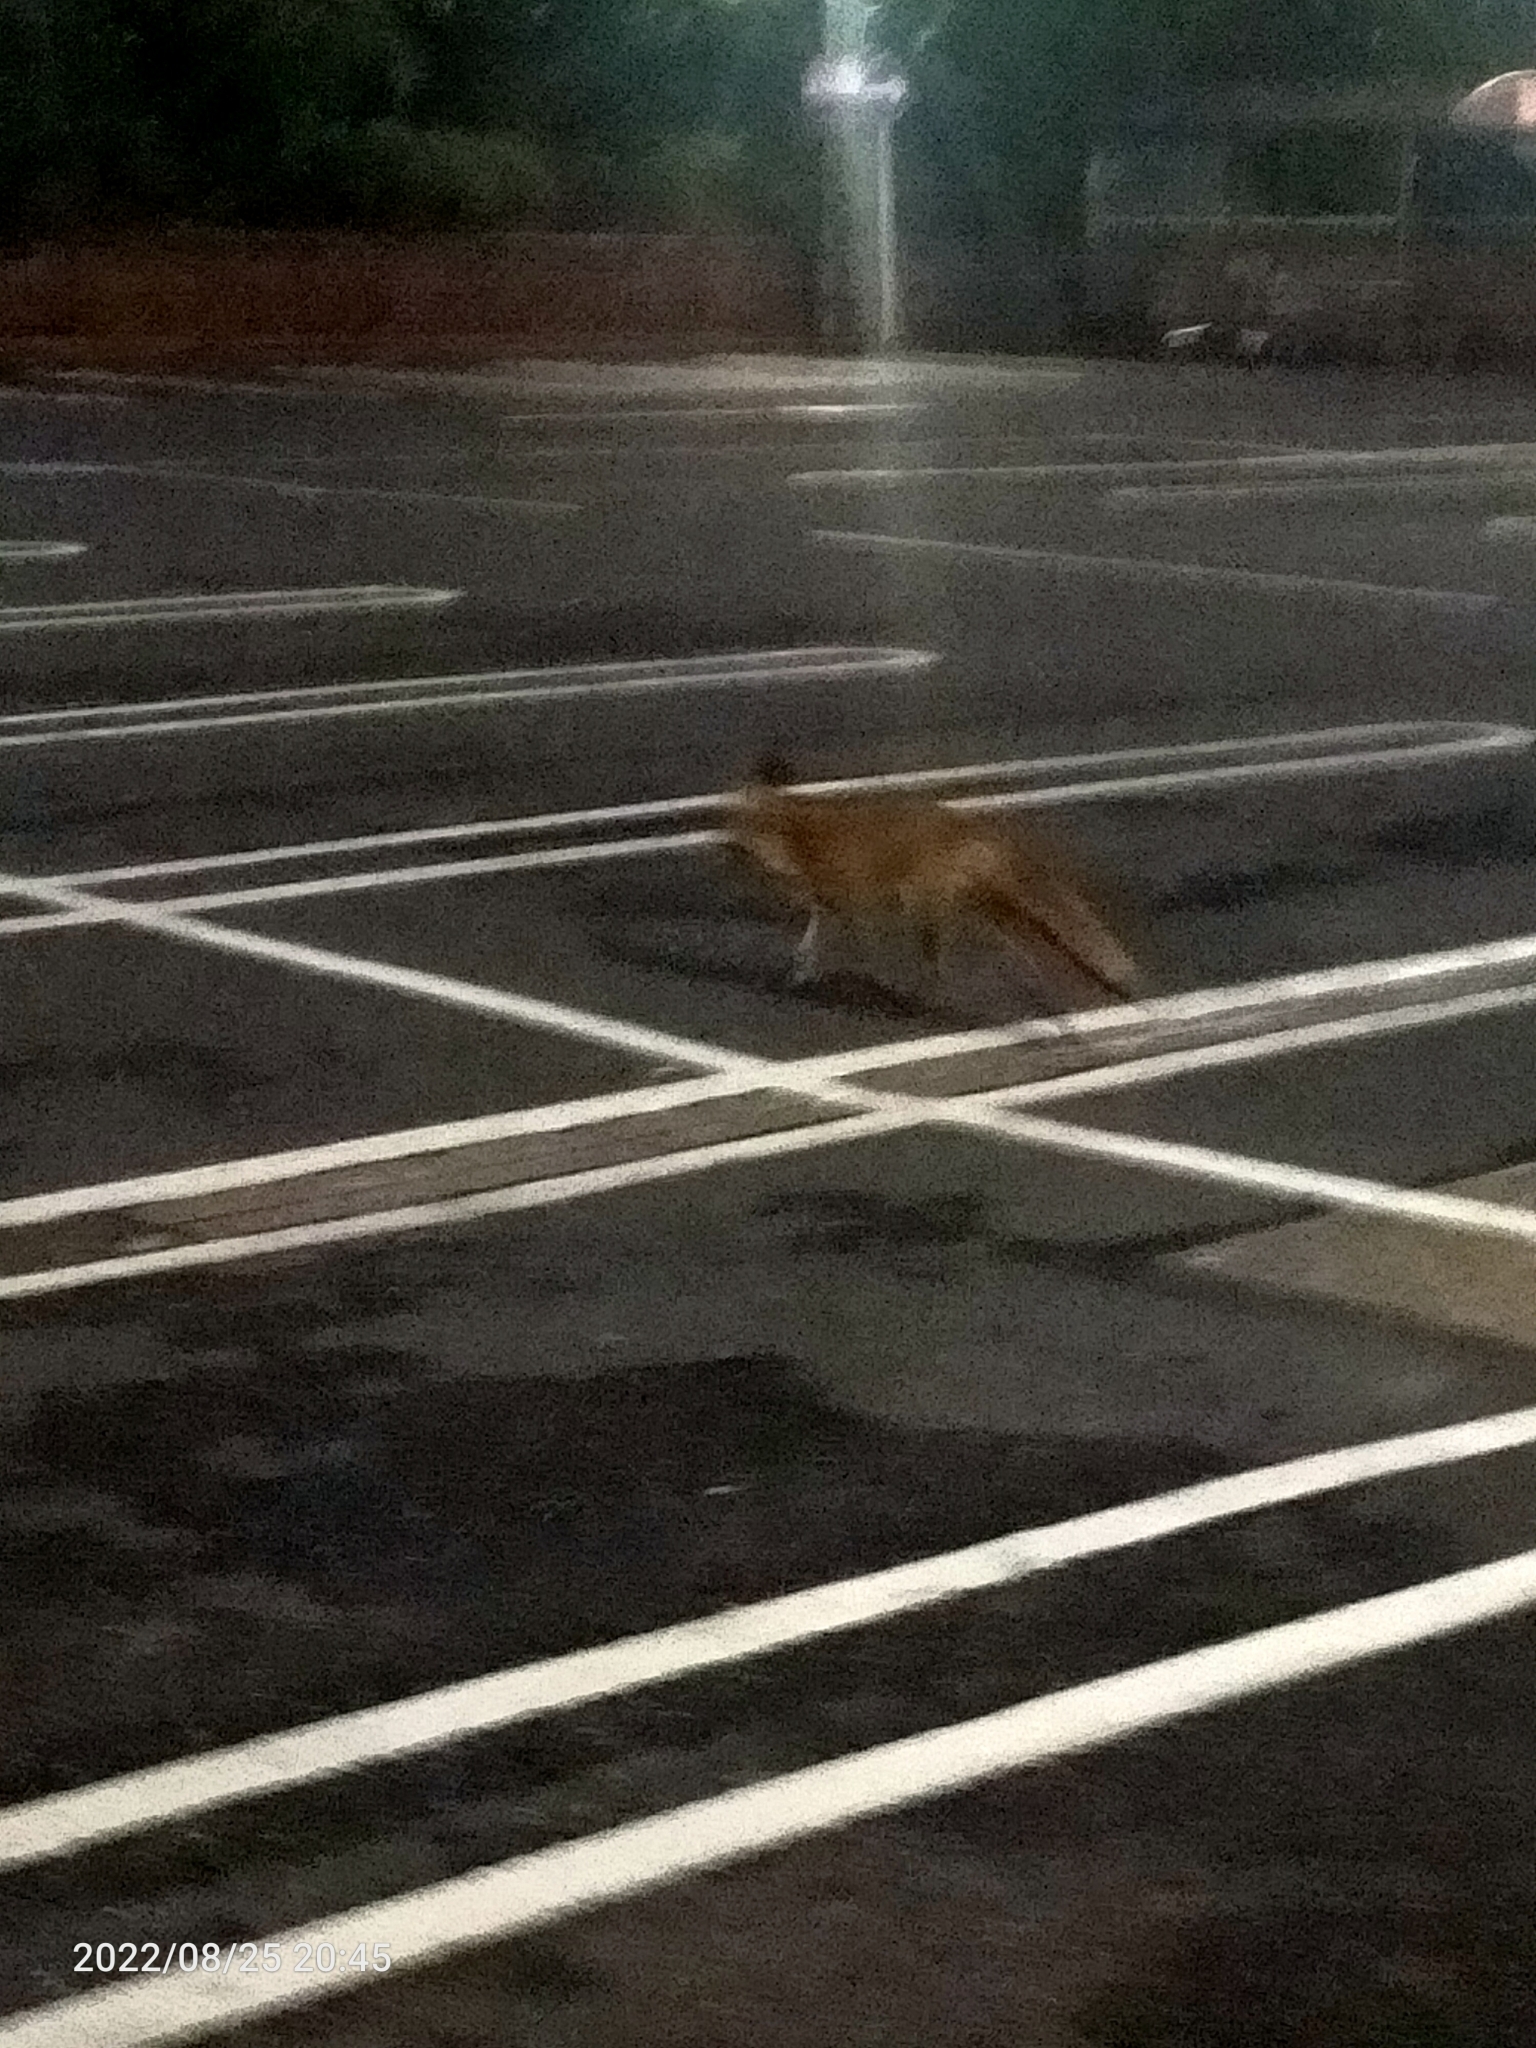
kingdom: Animalia
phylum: Chordata
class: Mammalia
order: Carnivora
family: Canidae
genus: Vulpes
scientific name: Vulpes vulpes
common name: Red fox
